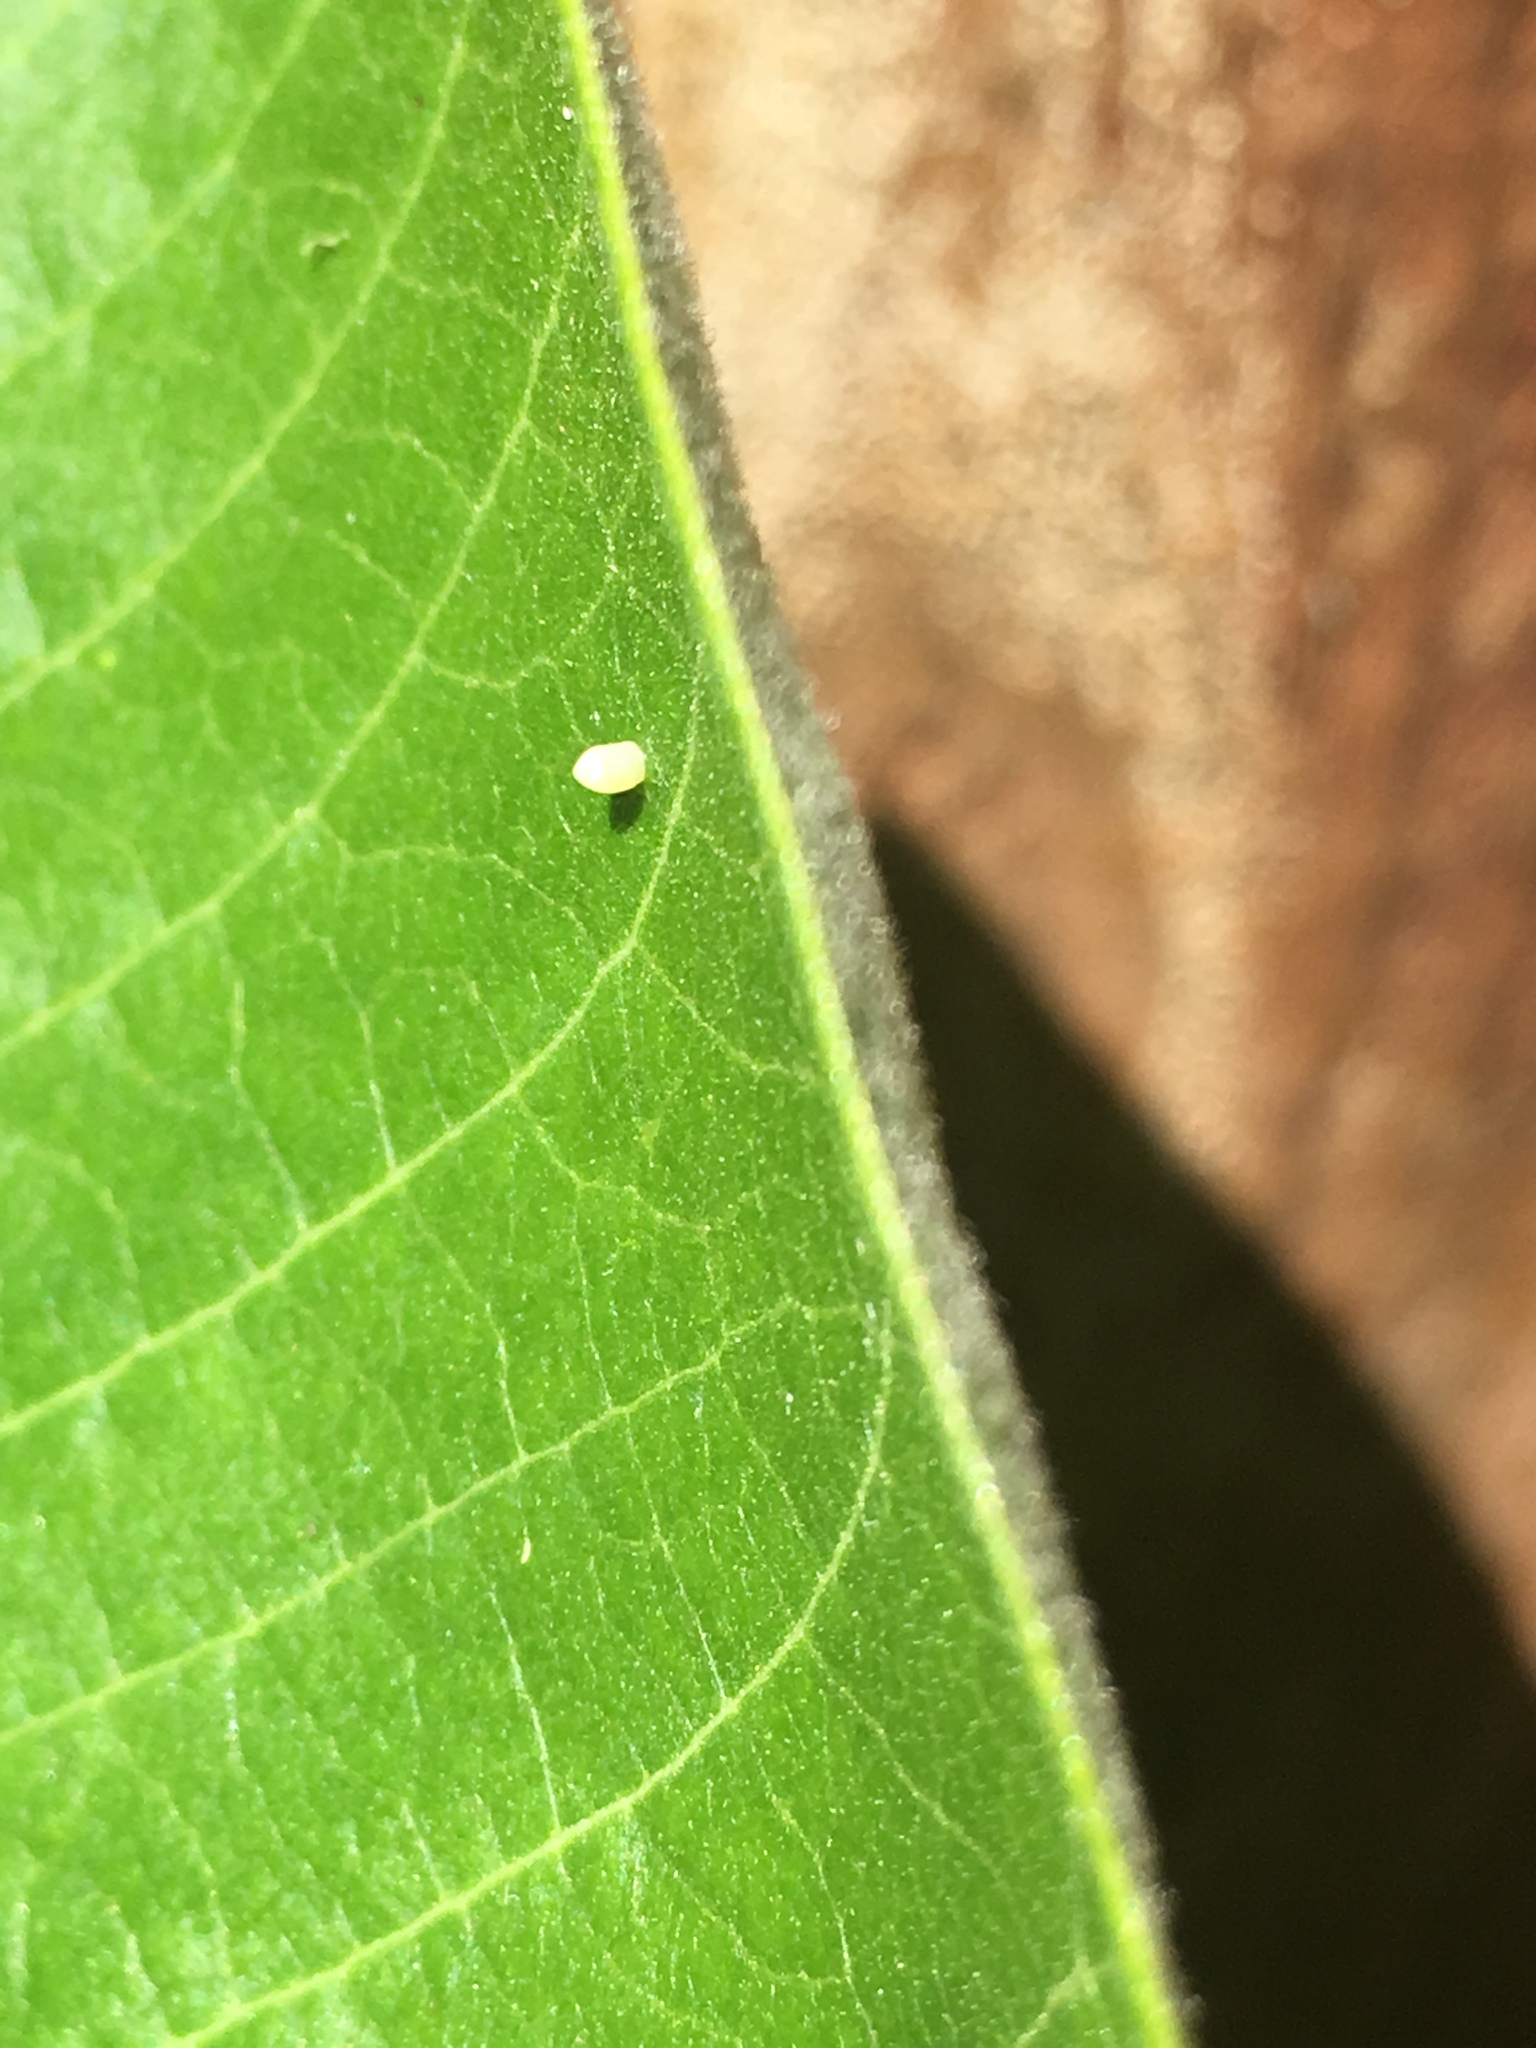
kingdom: Animalia
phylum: Arthropoda
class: Insecta
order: Lepidoptera
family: Nymphalidae
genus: Danaus
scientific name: Danaus plexippus
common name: Monarch
